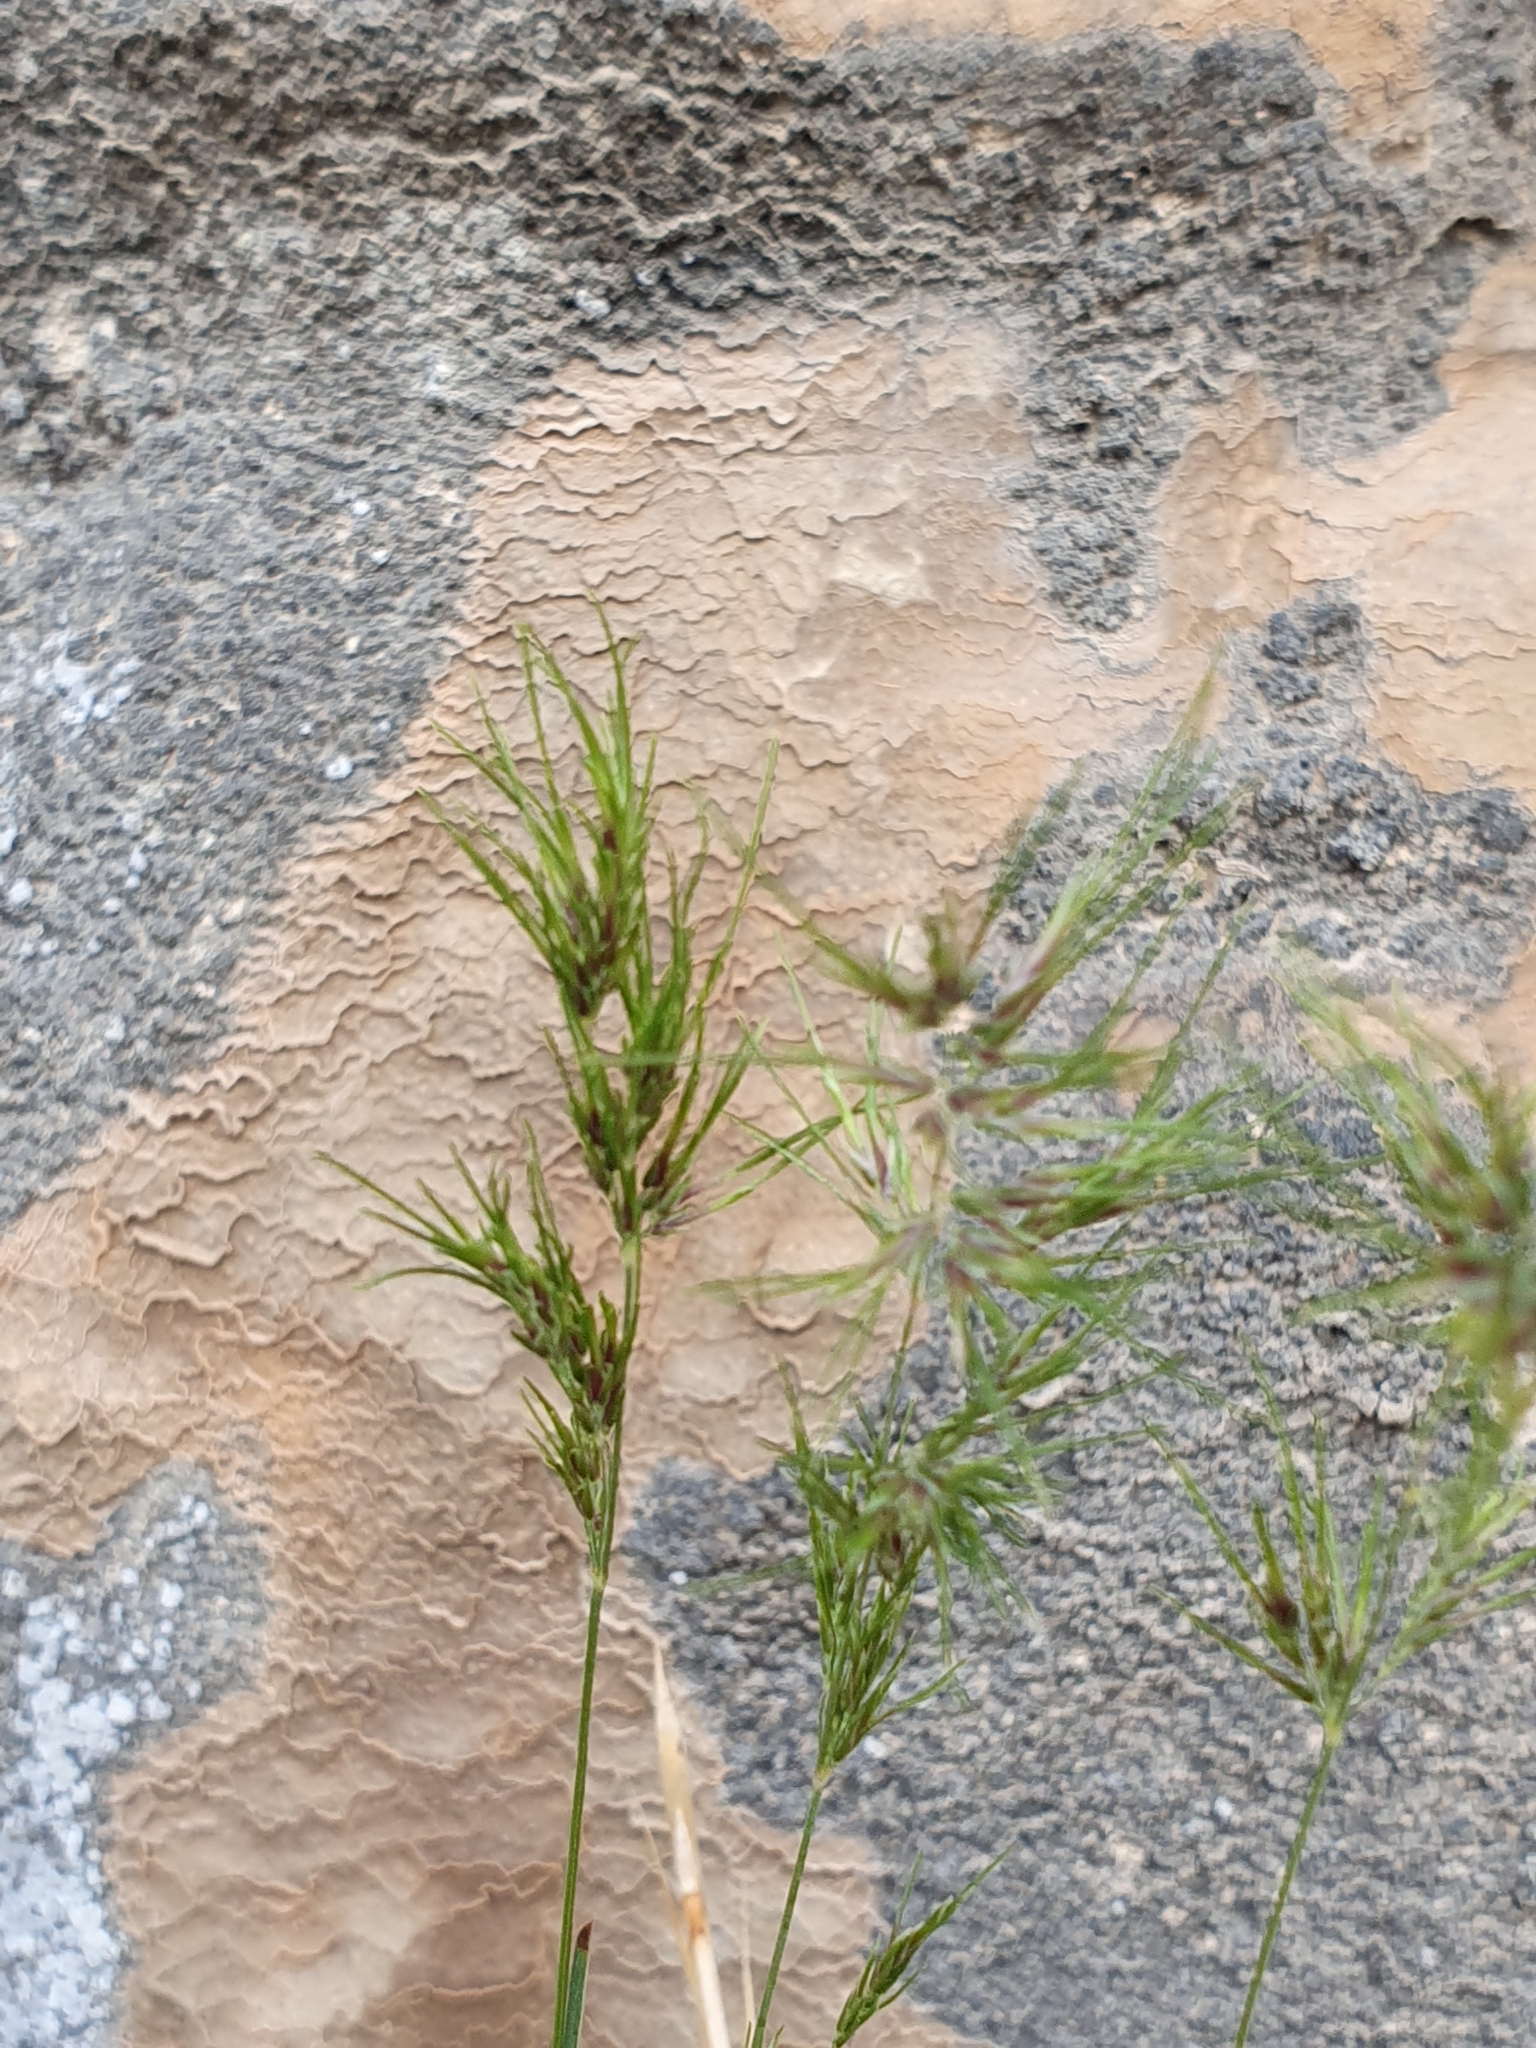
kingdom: Plantae
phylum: Tracheophyta
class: Liliopsida
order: Poales
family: Poaceae
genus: Poa
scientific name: Poa bulbosa
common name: Bulbous bluegrass
